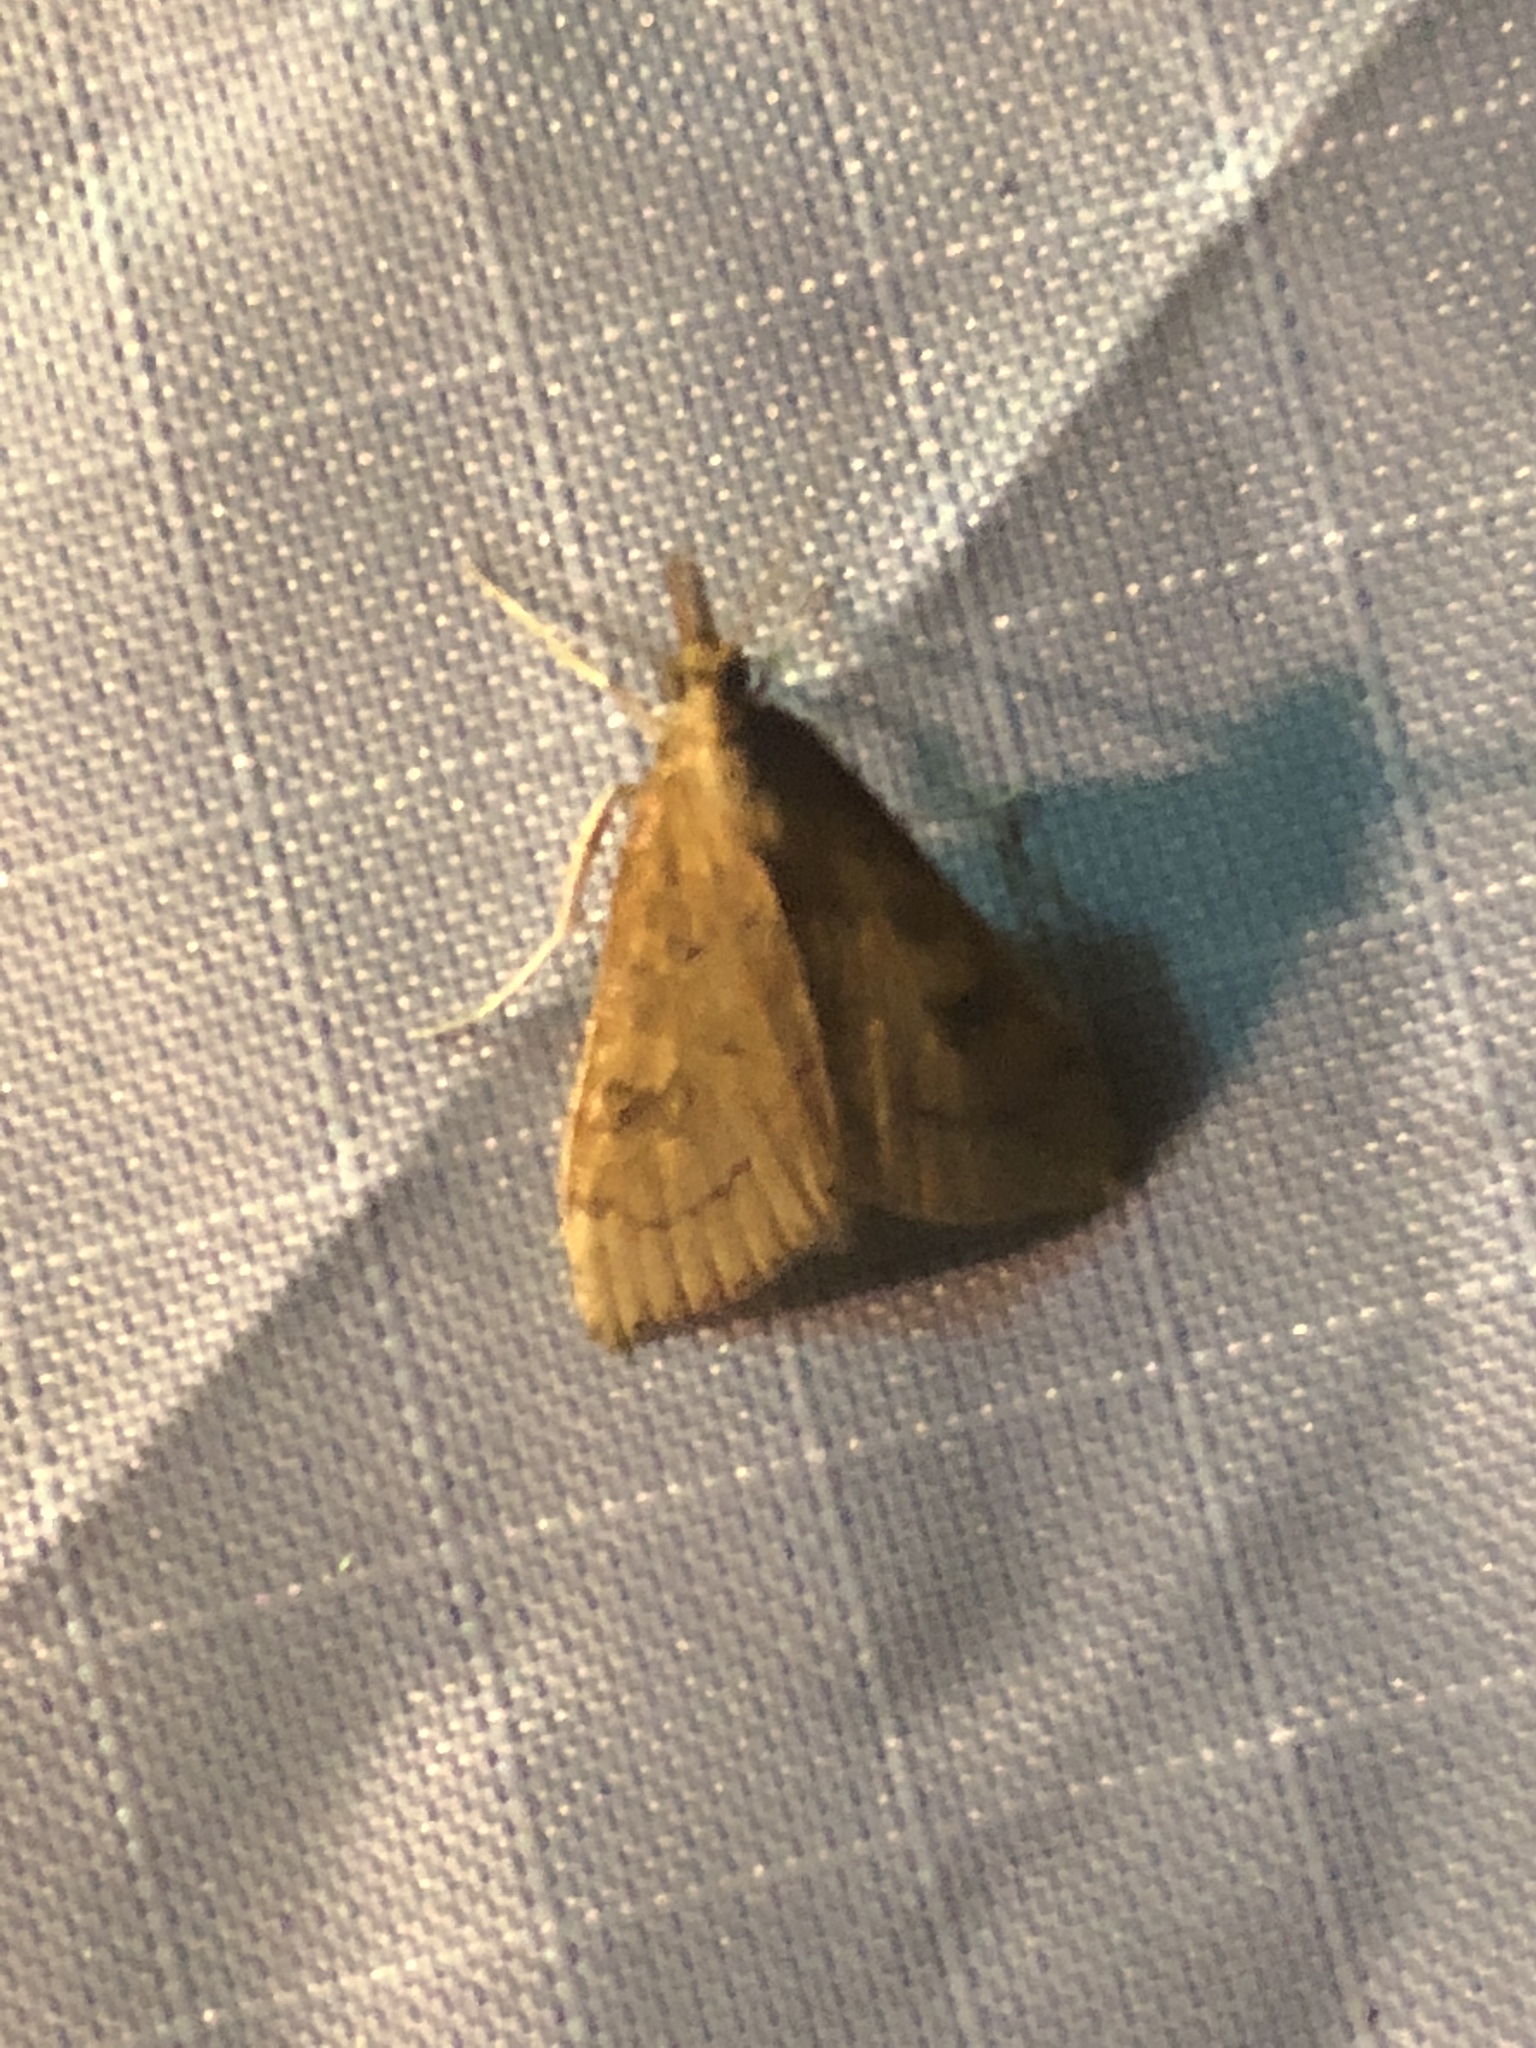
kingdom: Animalia
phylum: Arthropoda
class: Insecta
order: Lepidoptera
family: Crambidae
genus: Udea
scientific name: Udea rubigalis
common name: Celery leaftier moth
